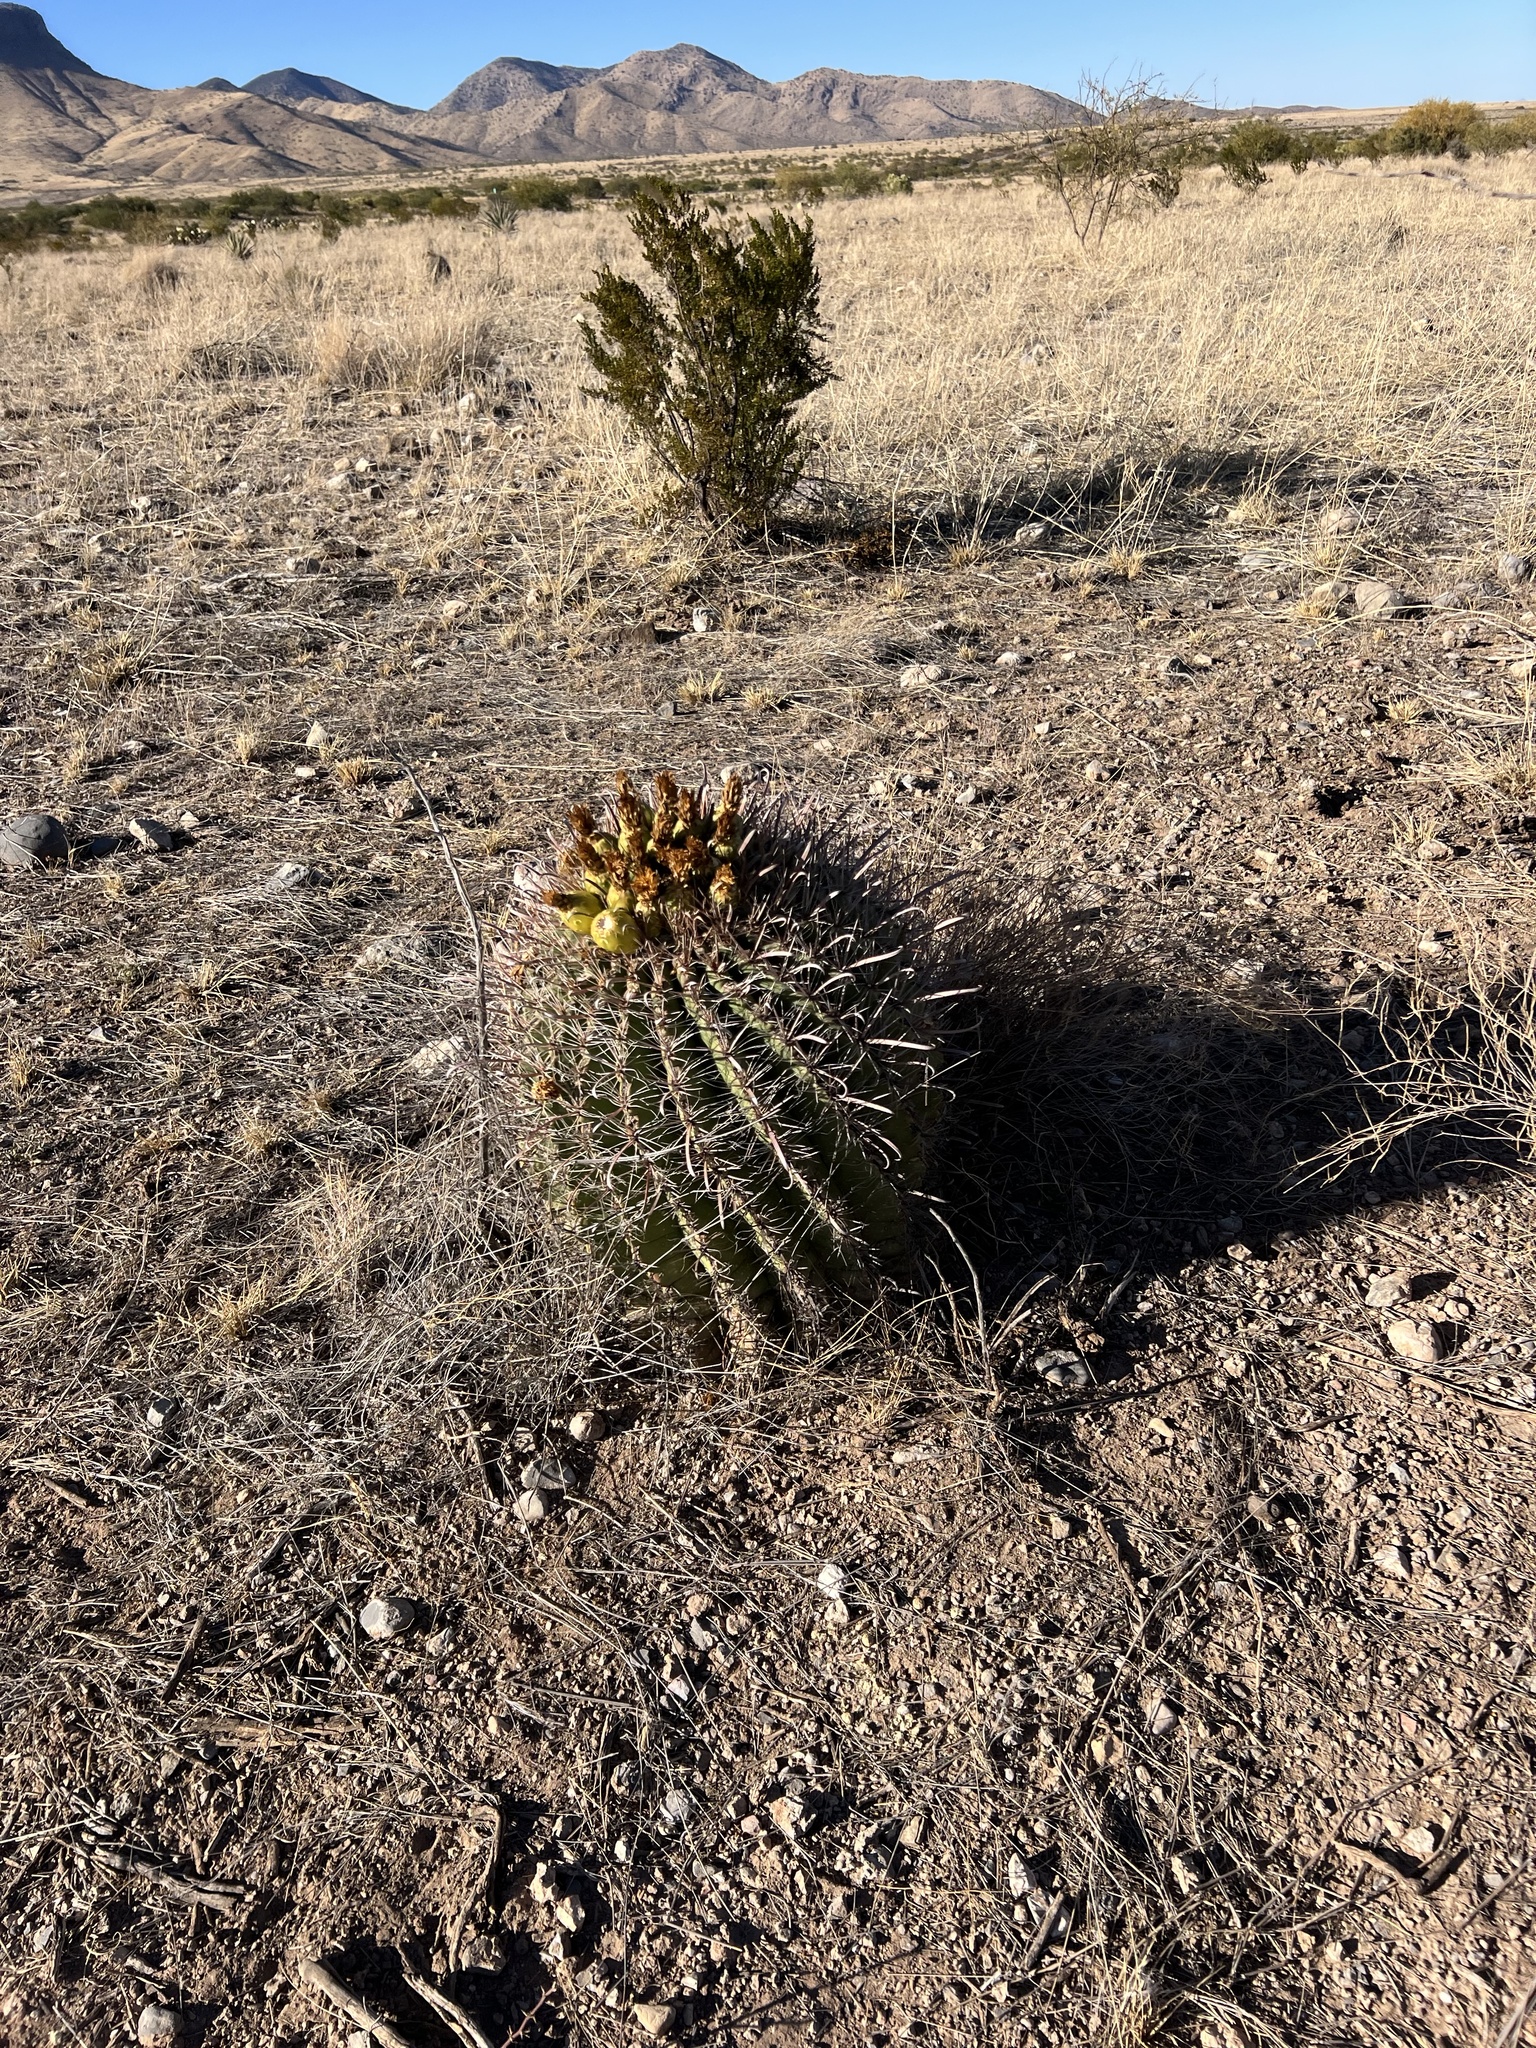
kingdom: Plantae
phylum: Tracheophyta
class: Magnoliopsida
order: Caryophyllales
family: Cactaceae
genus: Ferocactus
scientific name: Ferocactus wislizeni
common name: Candy barrel cactus
